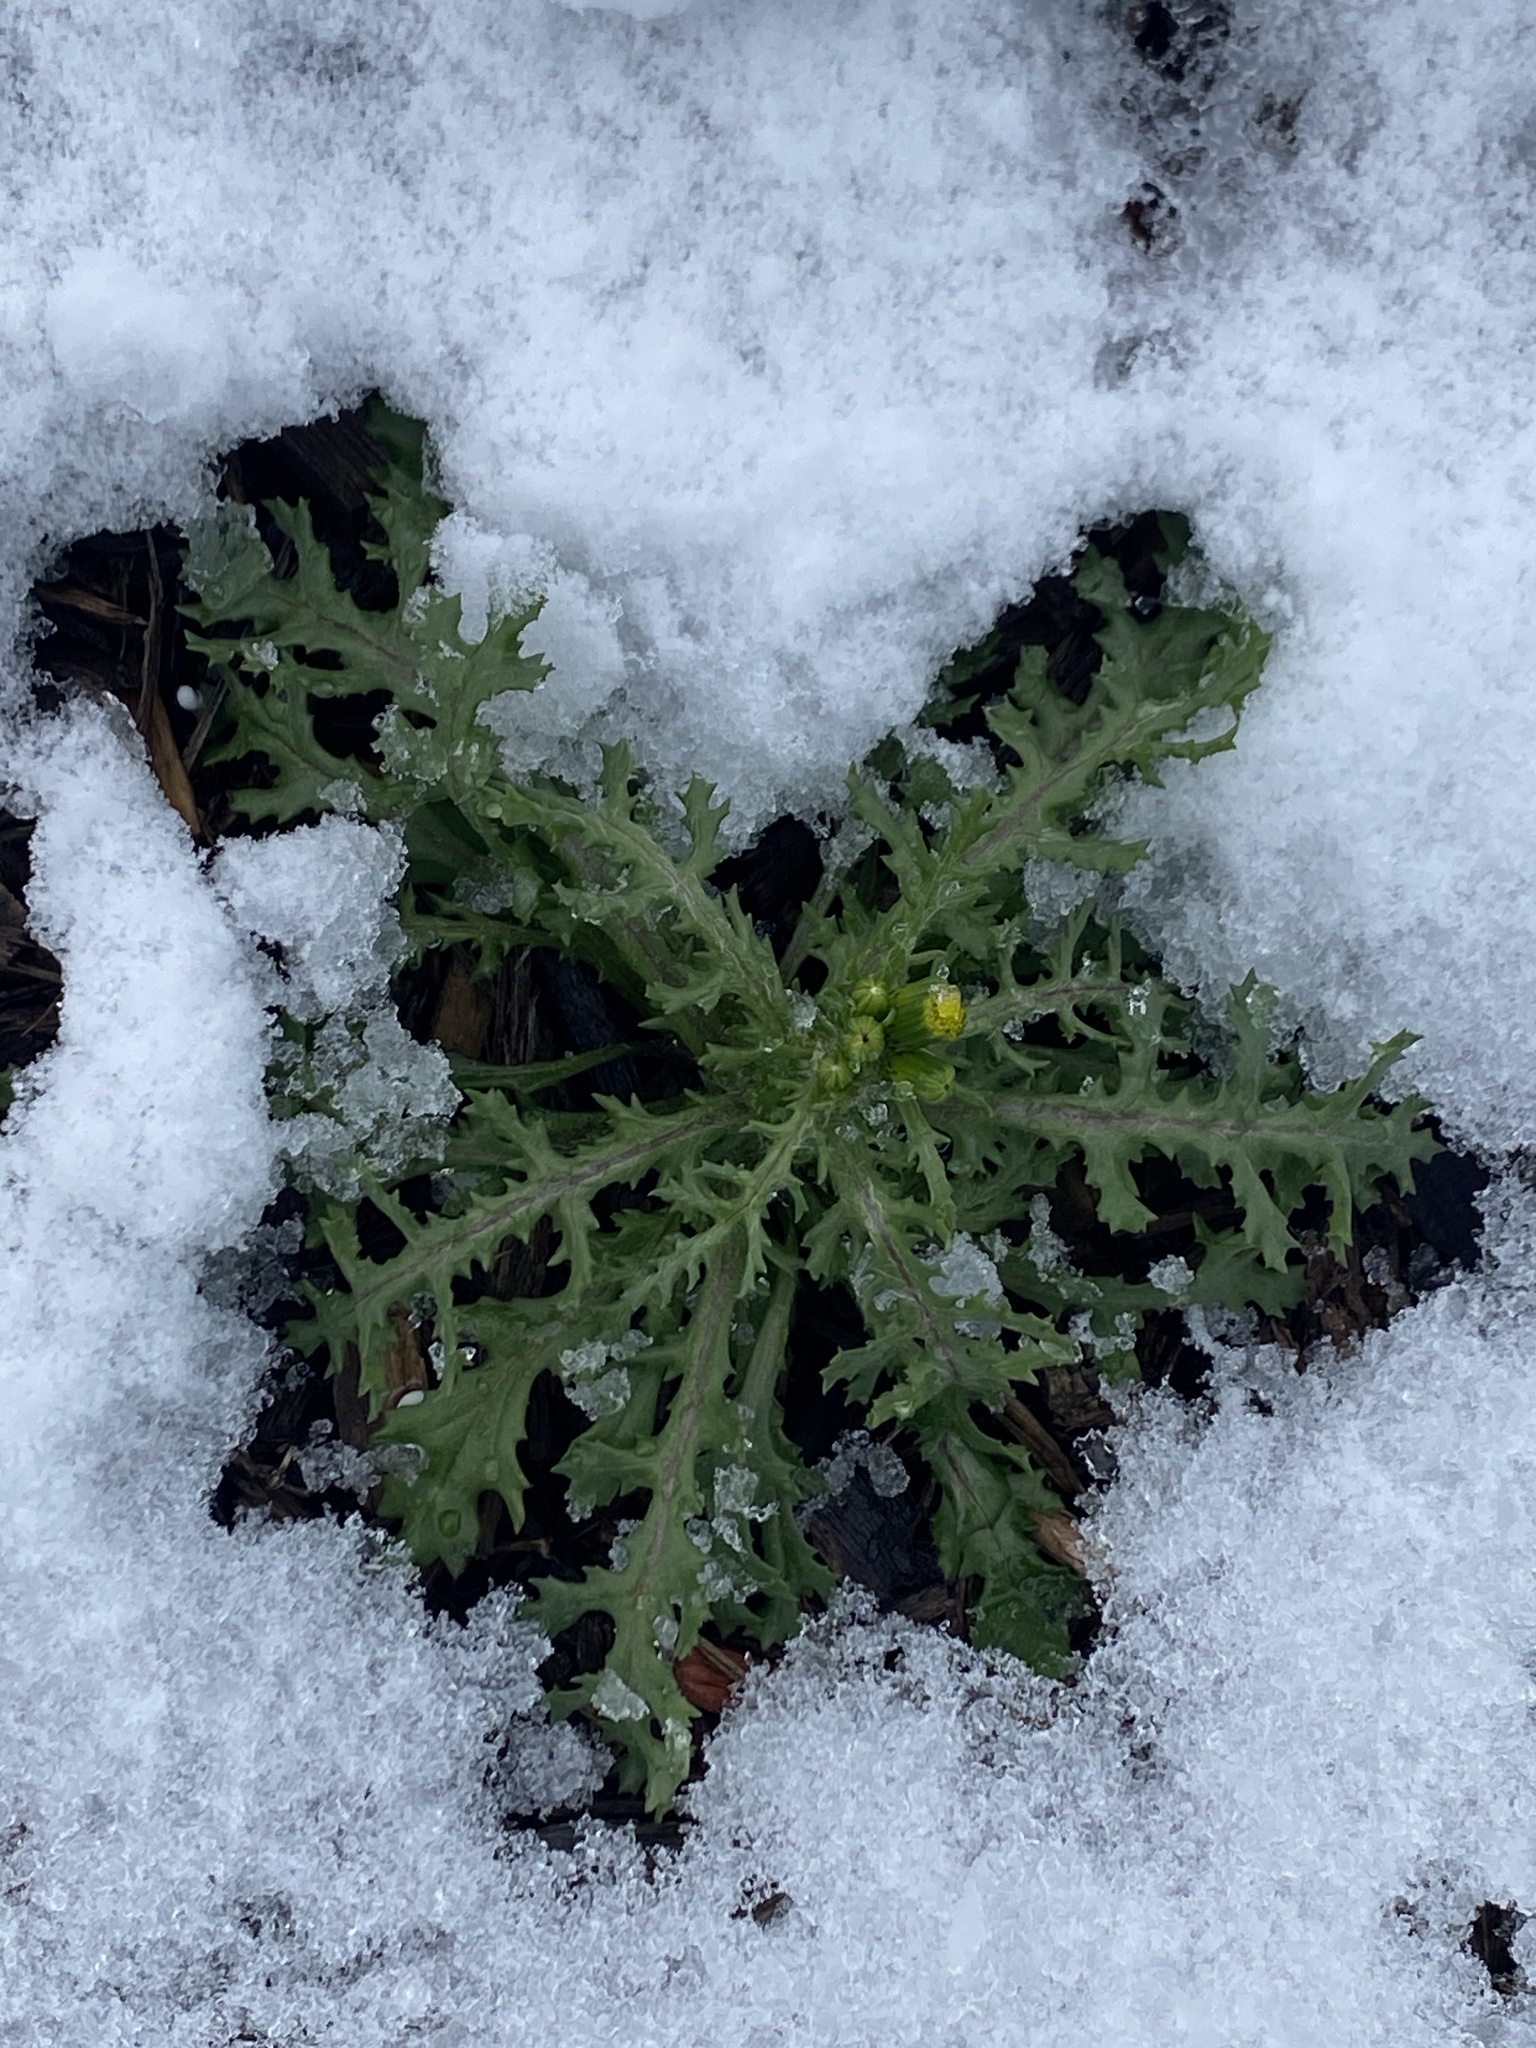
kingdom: Plantae
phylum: Tracheophyta
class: Magnoliopsida
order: Asterales
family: Asteraceae
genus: Senecio
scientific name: Senecio vulgaris
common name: Old-man-in-the-spring
